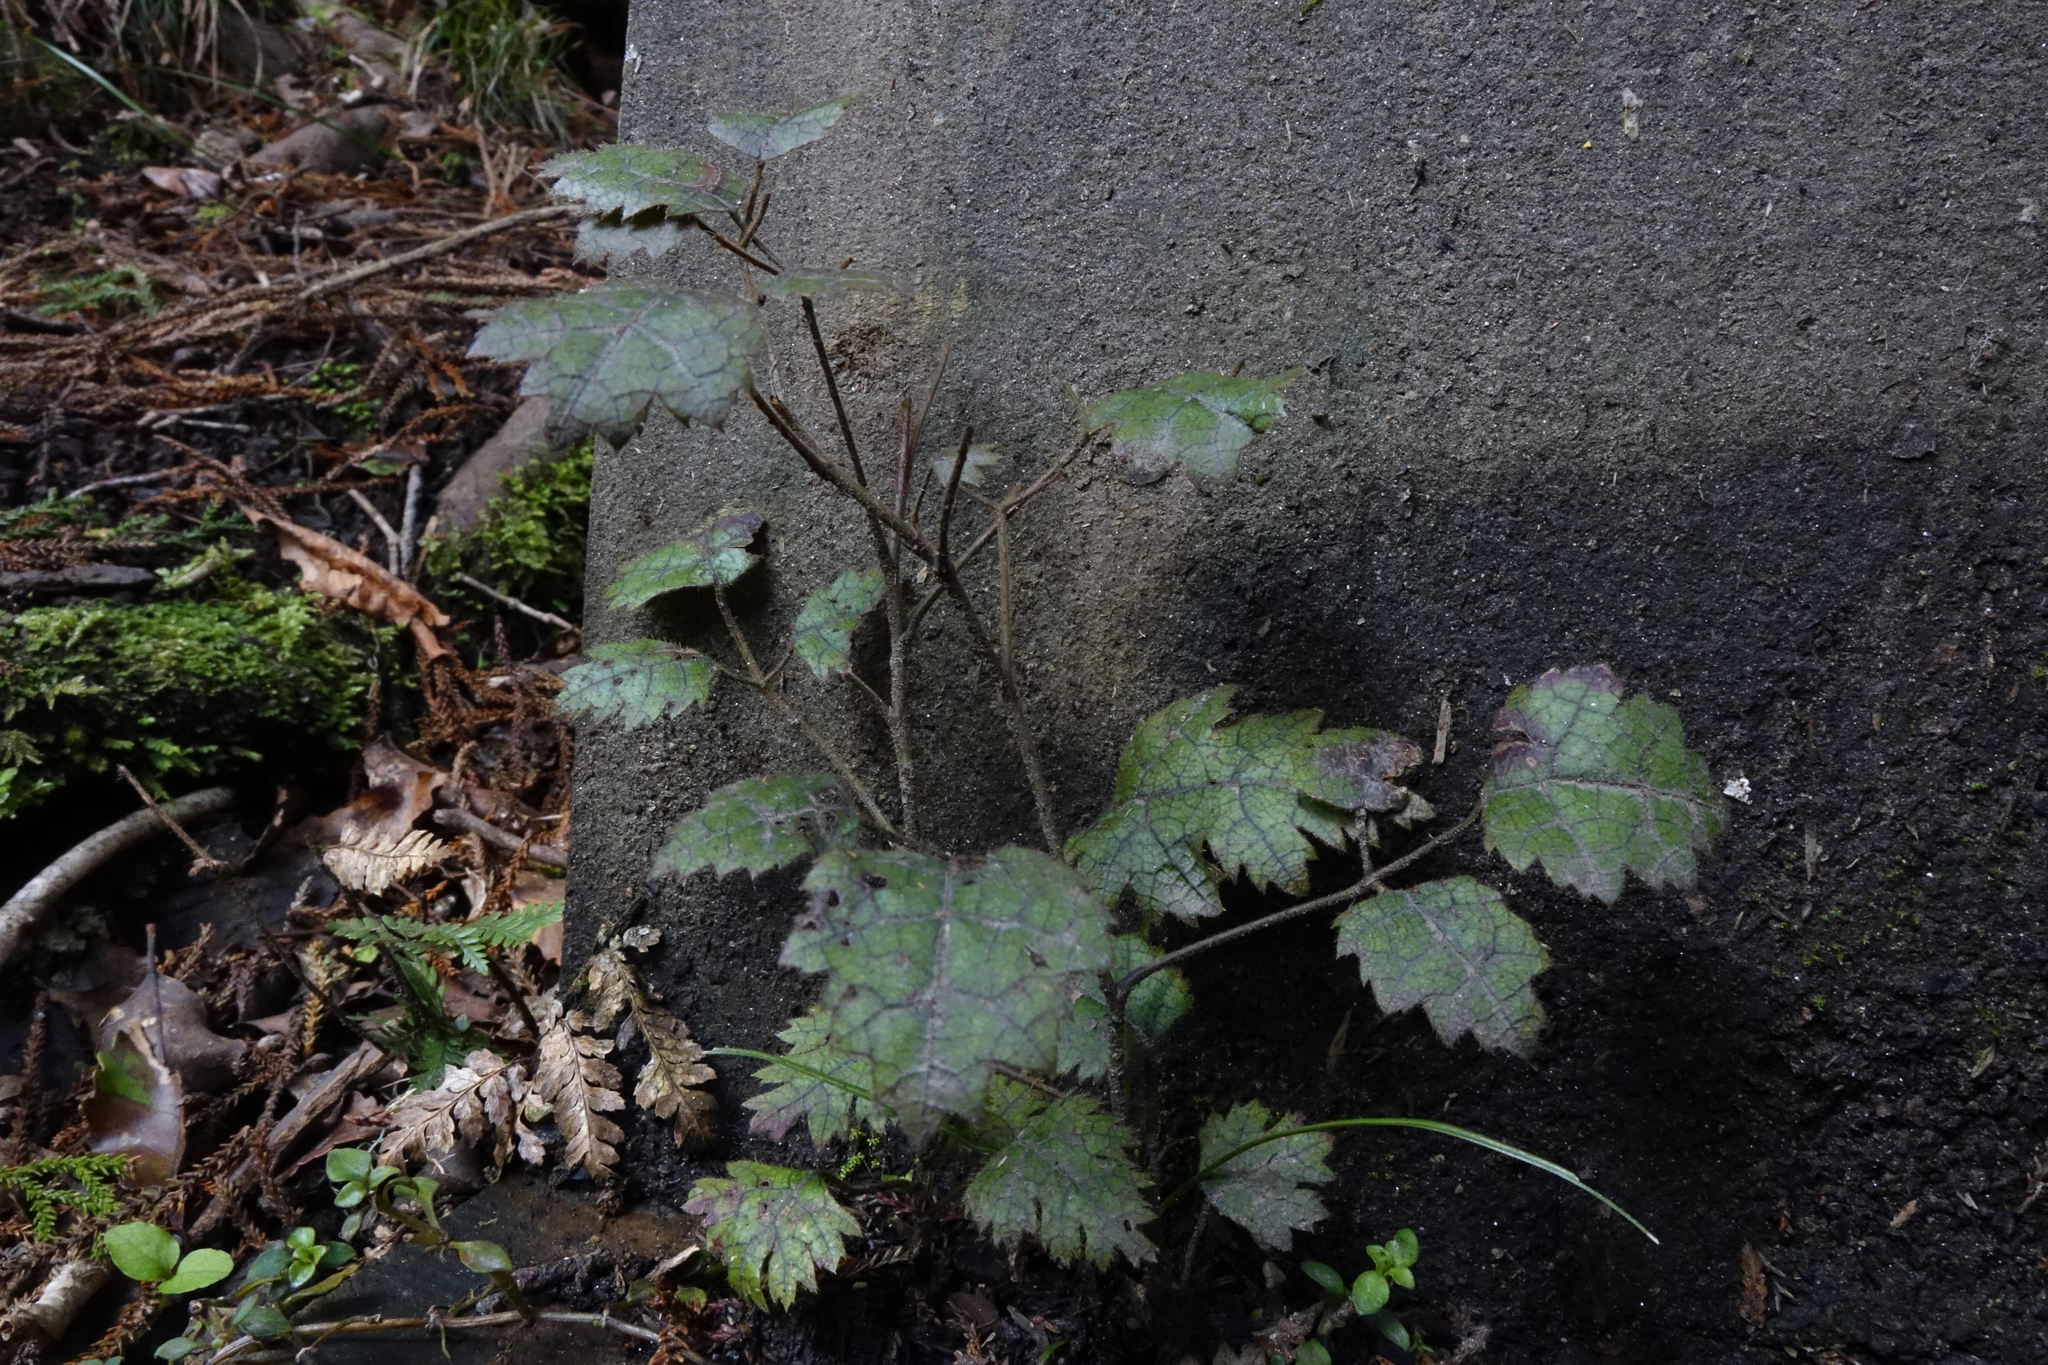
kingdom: Plantae
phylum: Tracheophyta
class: Magnoliopsida
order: Rosales
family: Rosaceae
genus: Rubus
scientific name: Rubus australis
